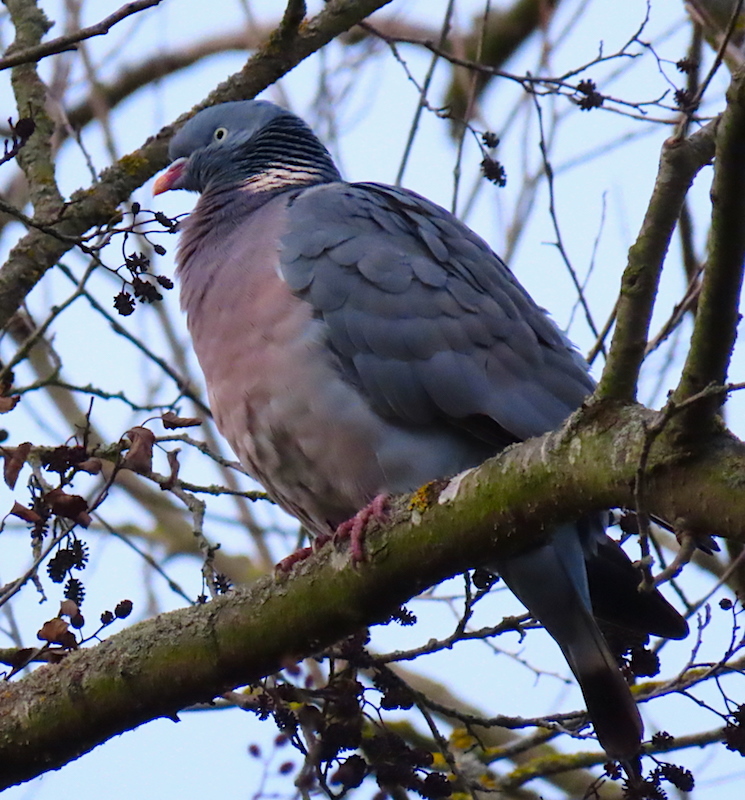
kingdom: Animalia
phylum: Chordata
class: Aves
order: Columbiformes
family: Columbidae
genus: Columba
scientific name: Columba palumbus
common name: Common wood pigeon
